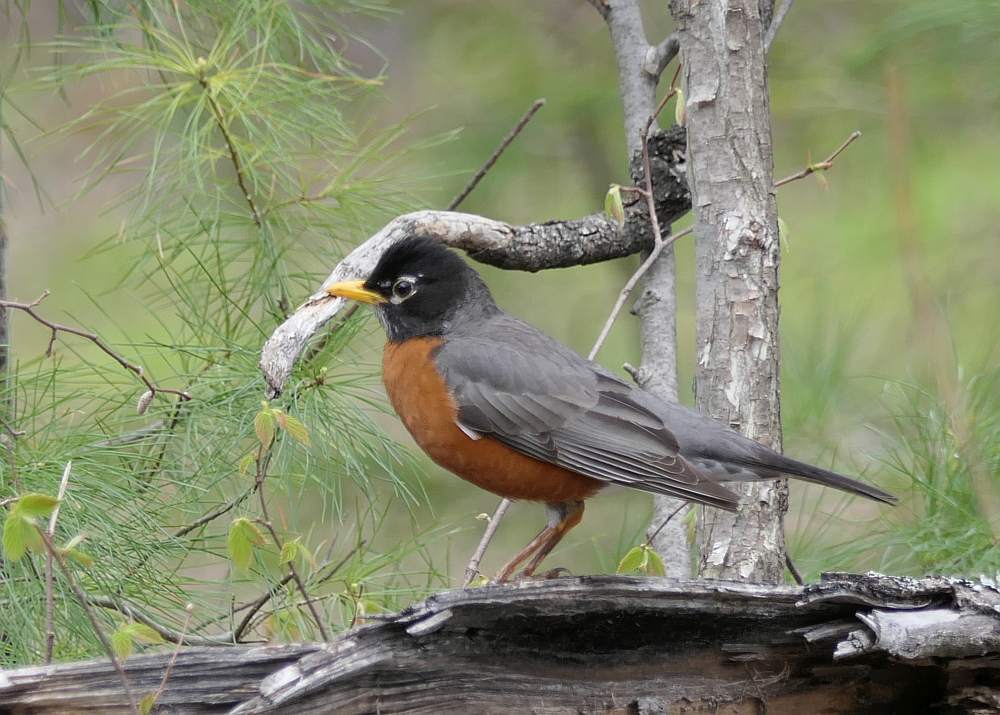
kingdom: Animalia
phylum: Chordata
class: Aves
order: Passeriformes
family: Turdidae
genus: Turdus
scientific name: Turdus migratorius
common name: American robin
